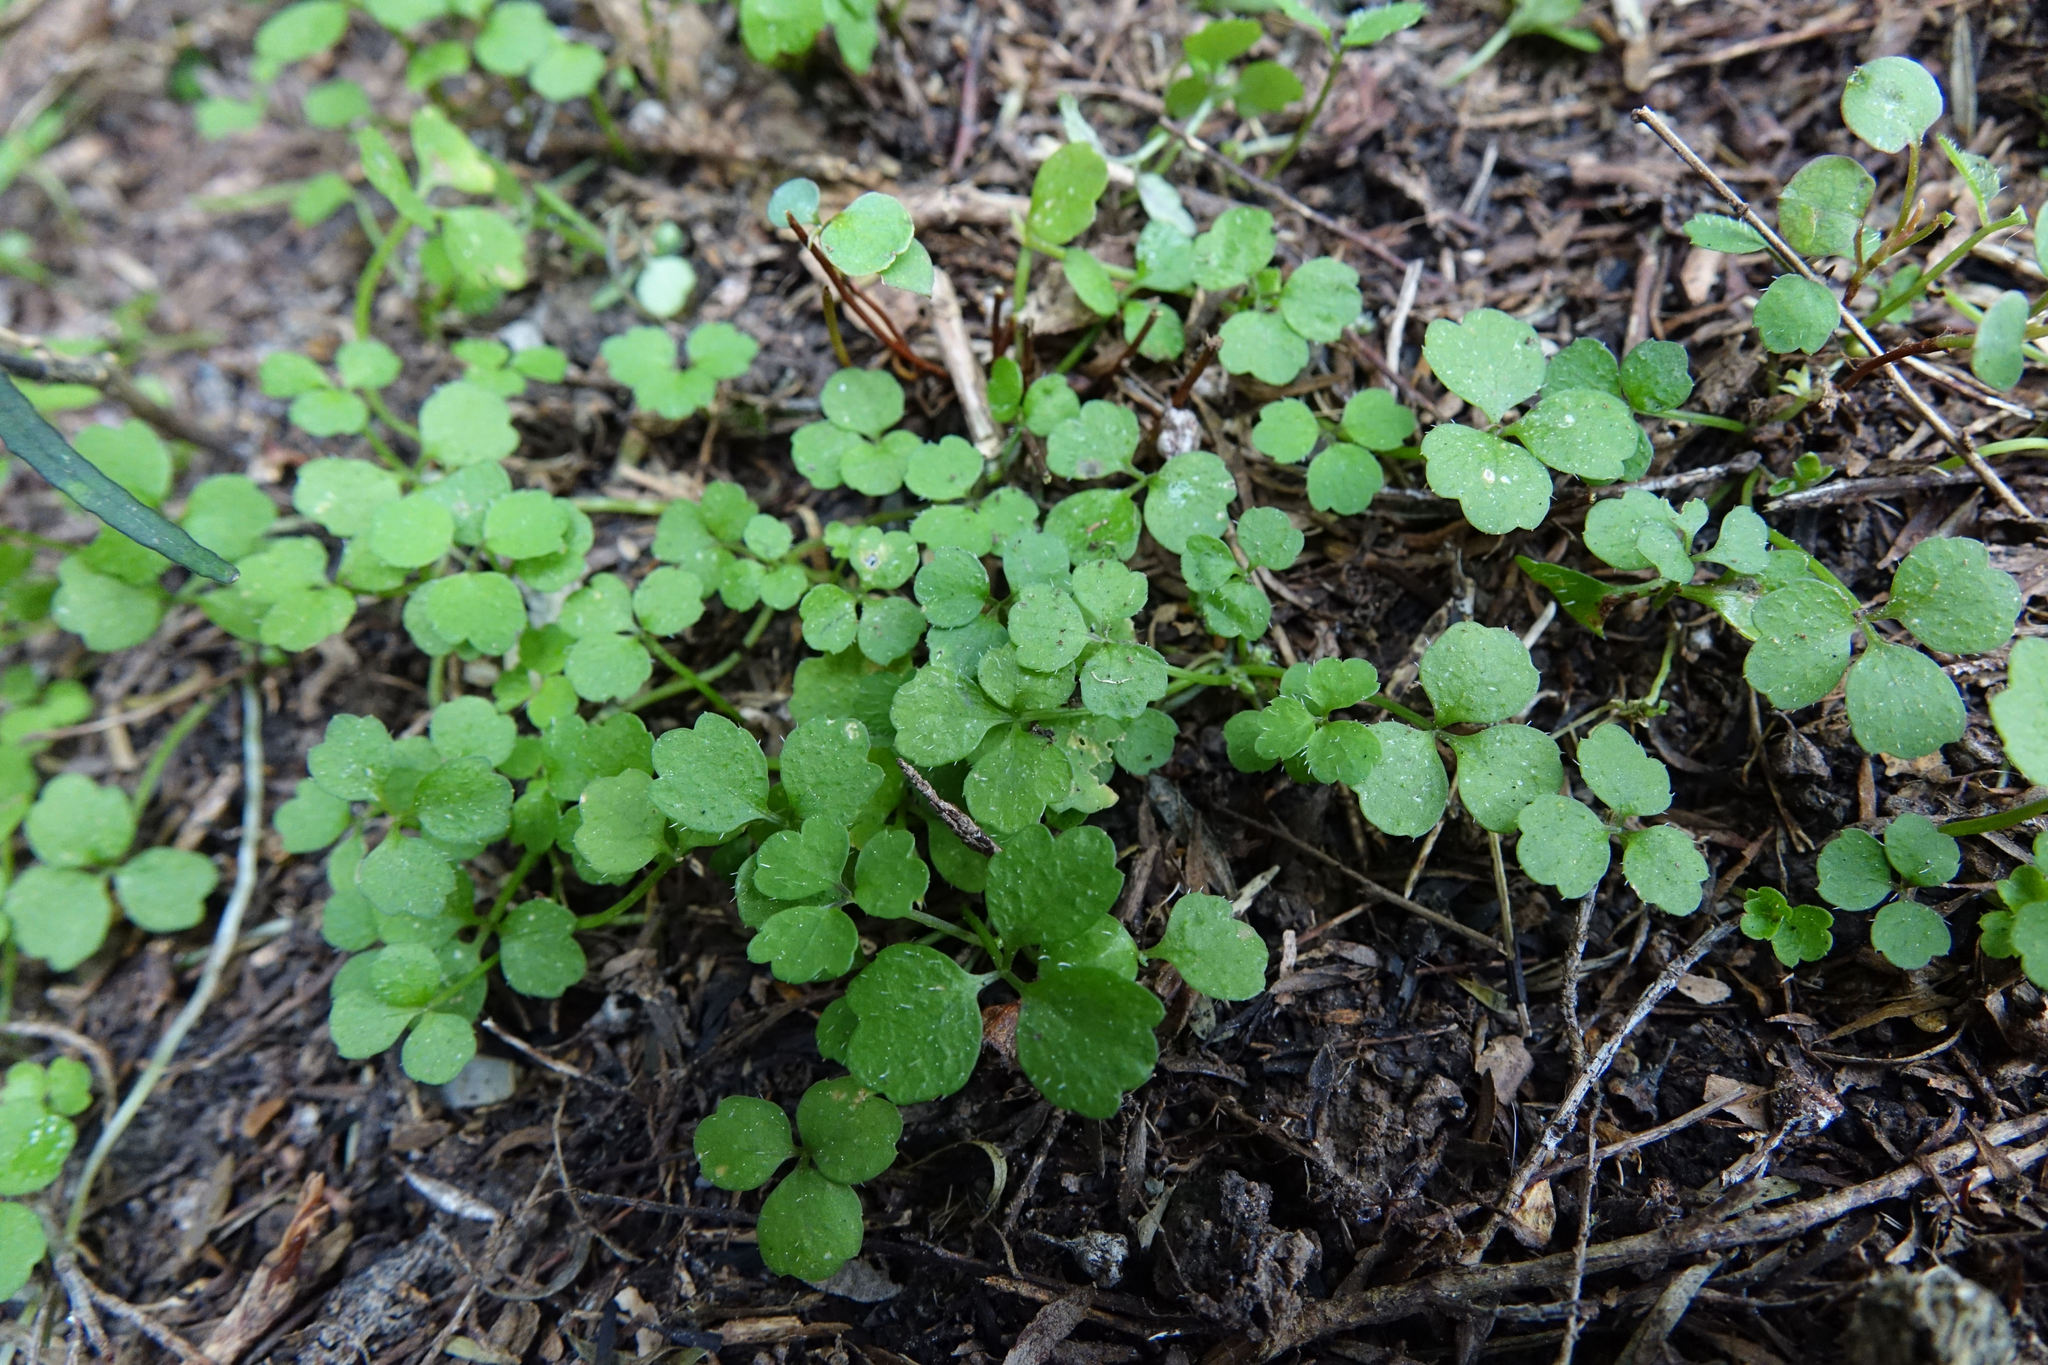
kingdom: Plantae
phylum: Tracheophyta
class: Magnoliopsida
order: Apiales
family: Apiaceae
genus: Azorella
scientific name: Azorella hookeri
